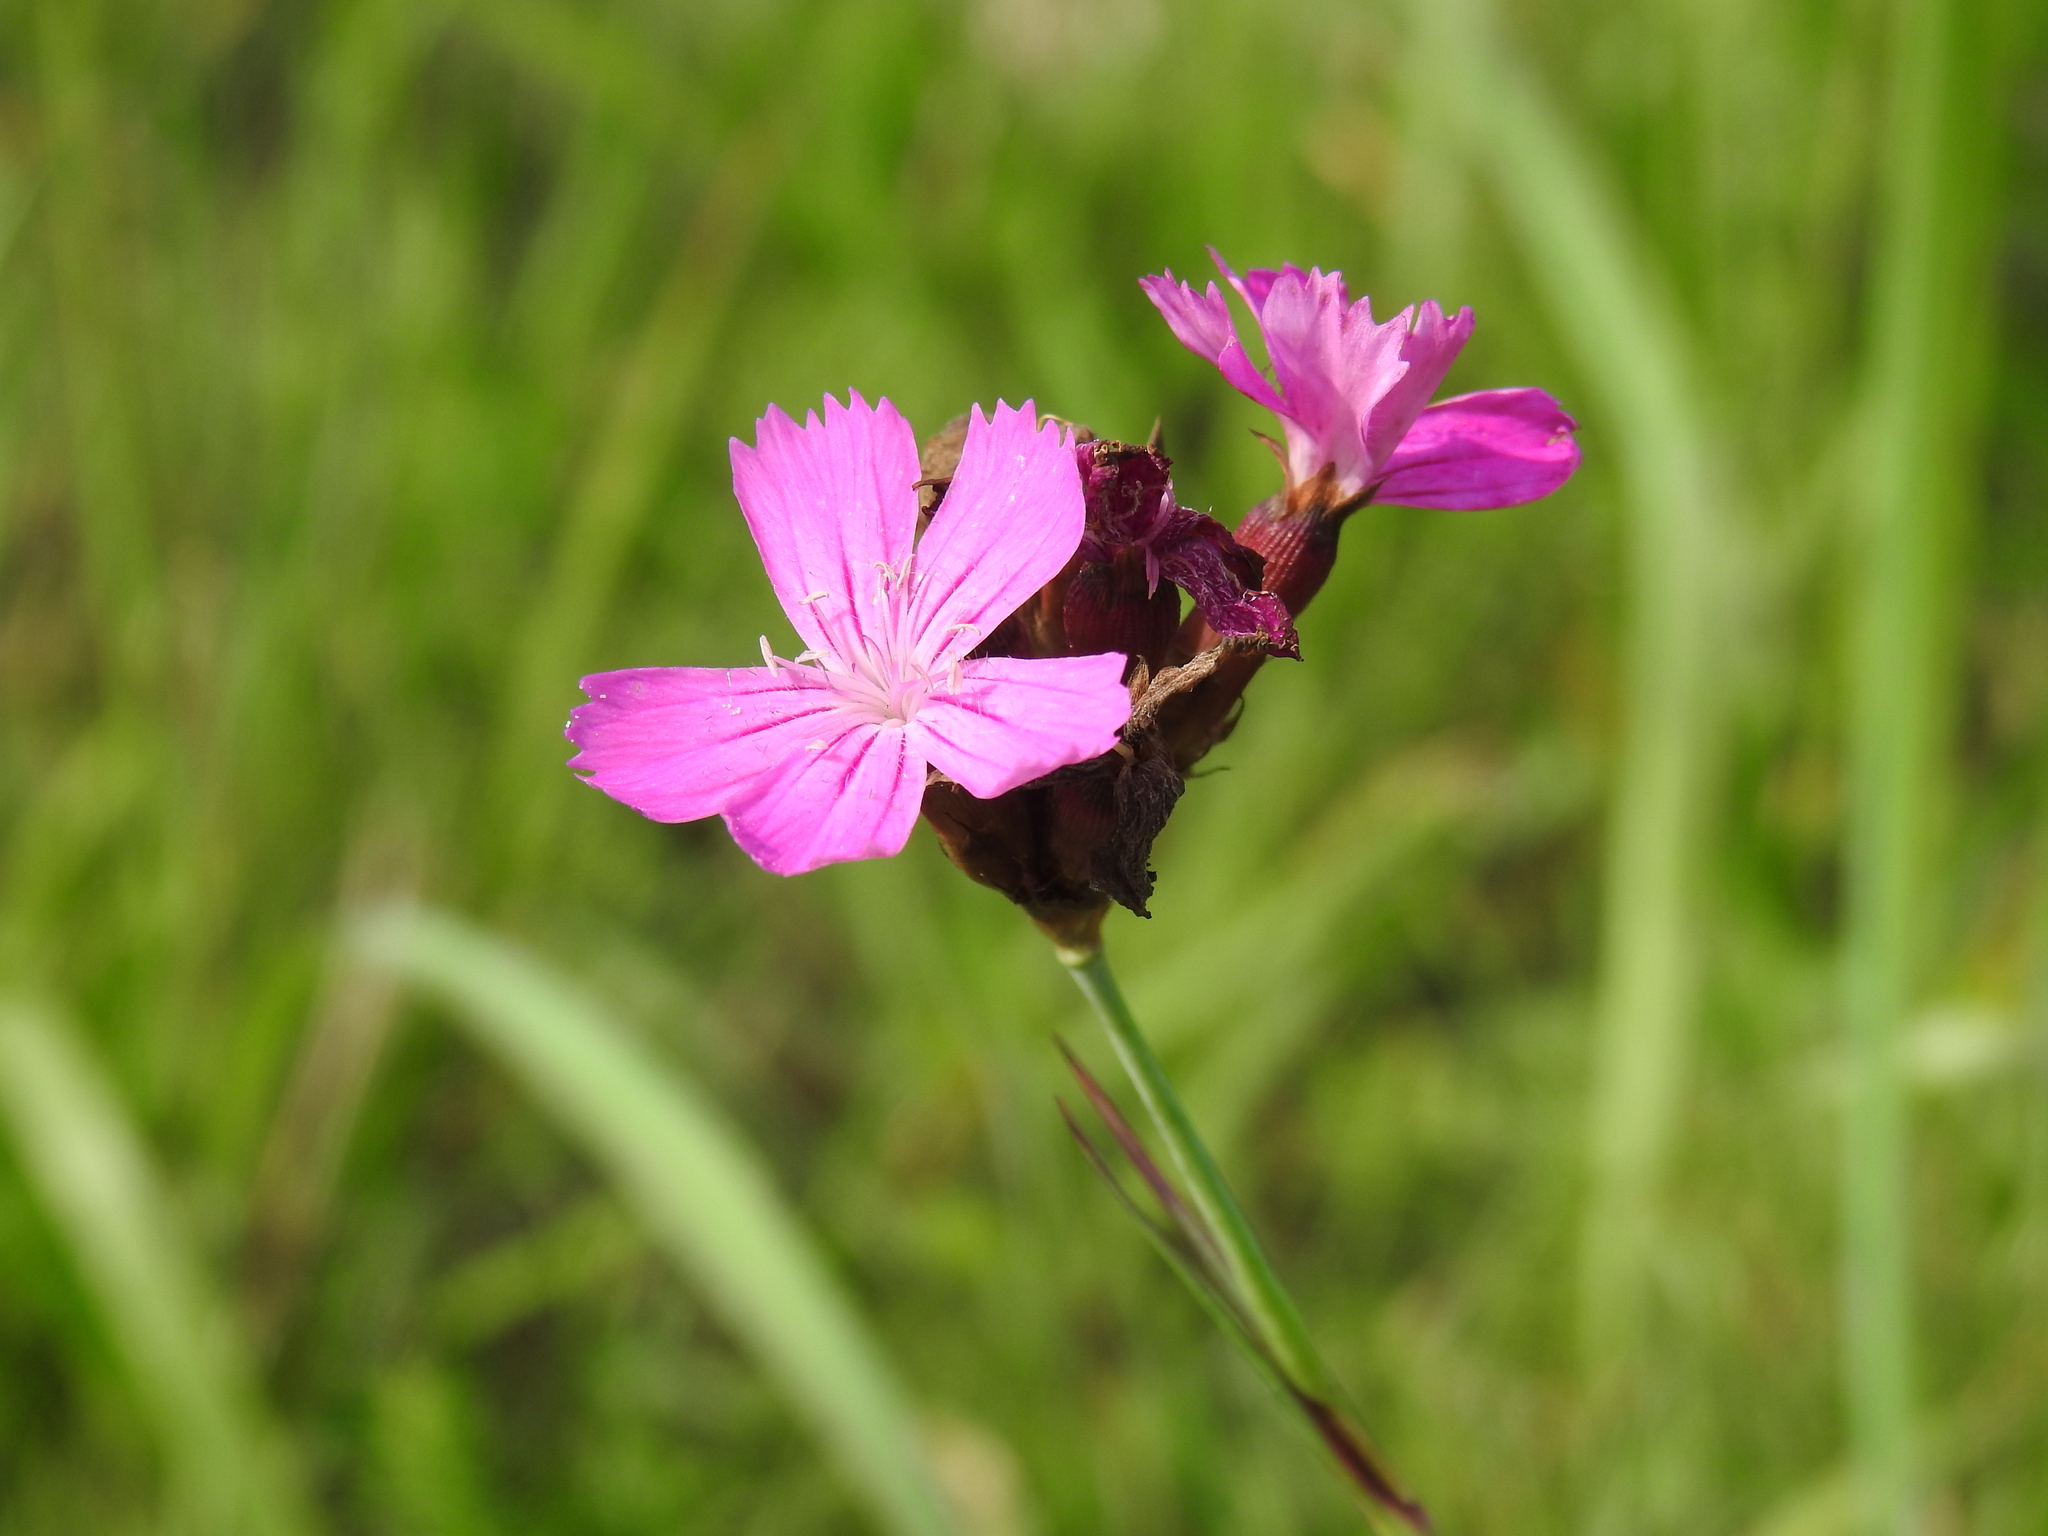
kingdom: Plantae
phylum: Tracheophyta
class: Magnoliopsida
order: Caryophyllales
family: Caryophyllaceae
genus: Dianthus
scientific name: Dianthus carthusianorum
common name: Carthusian pink
